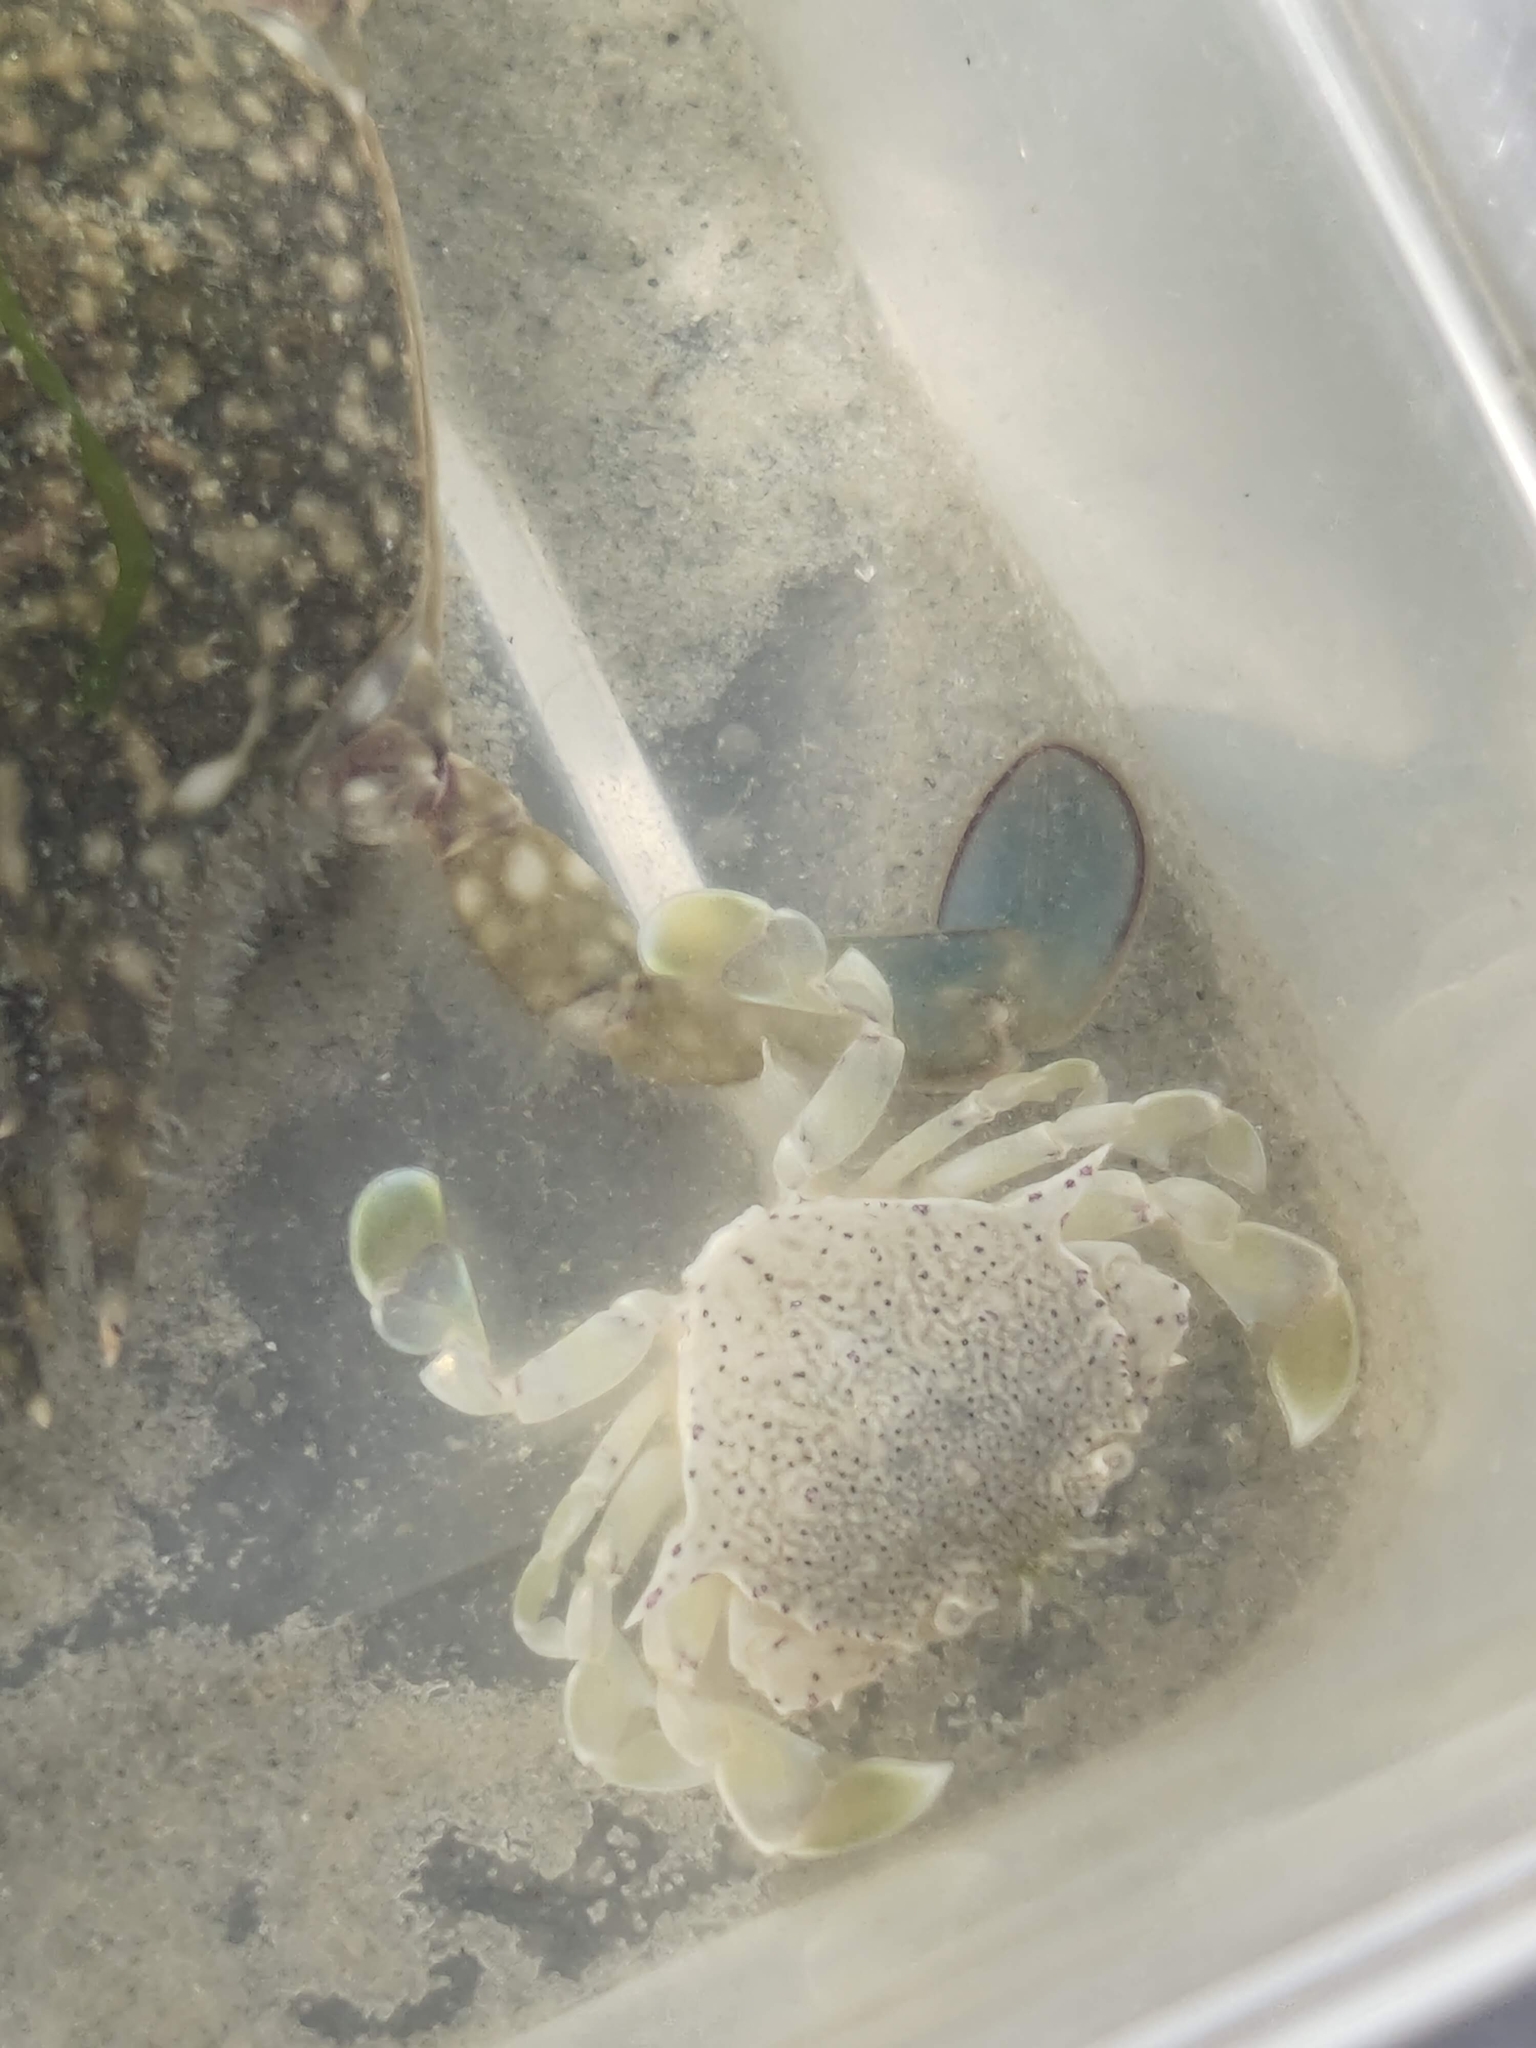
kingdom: Animalia
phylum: Arthropoda
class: Malacostraca
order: Decapoda
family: Matutidae
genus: Matuta
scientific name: Matuta victor
